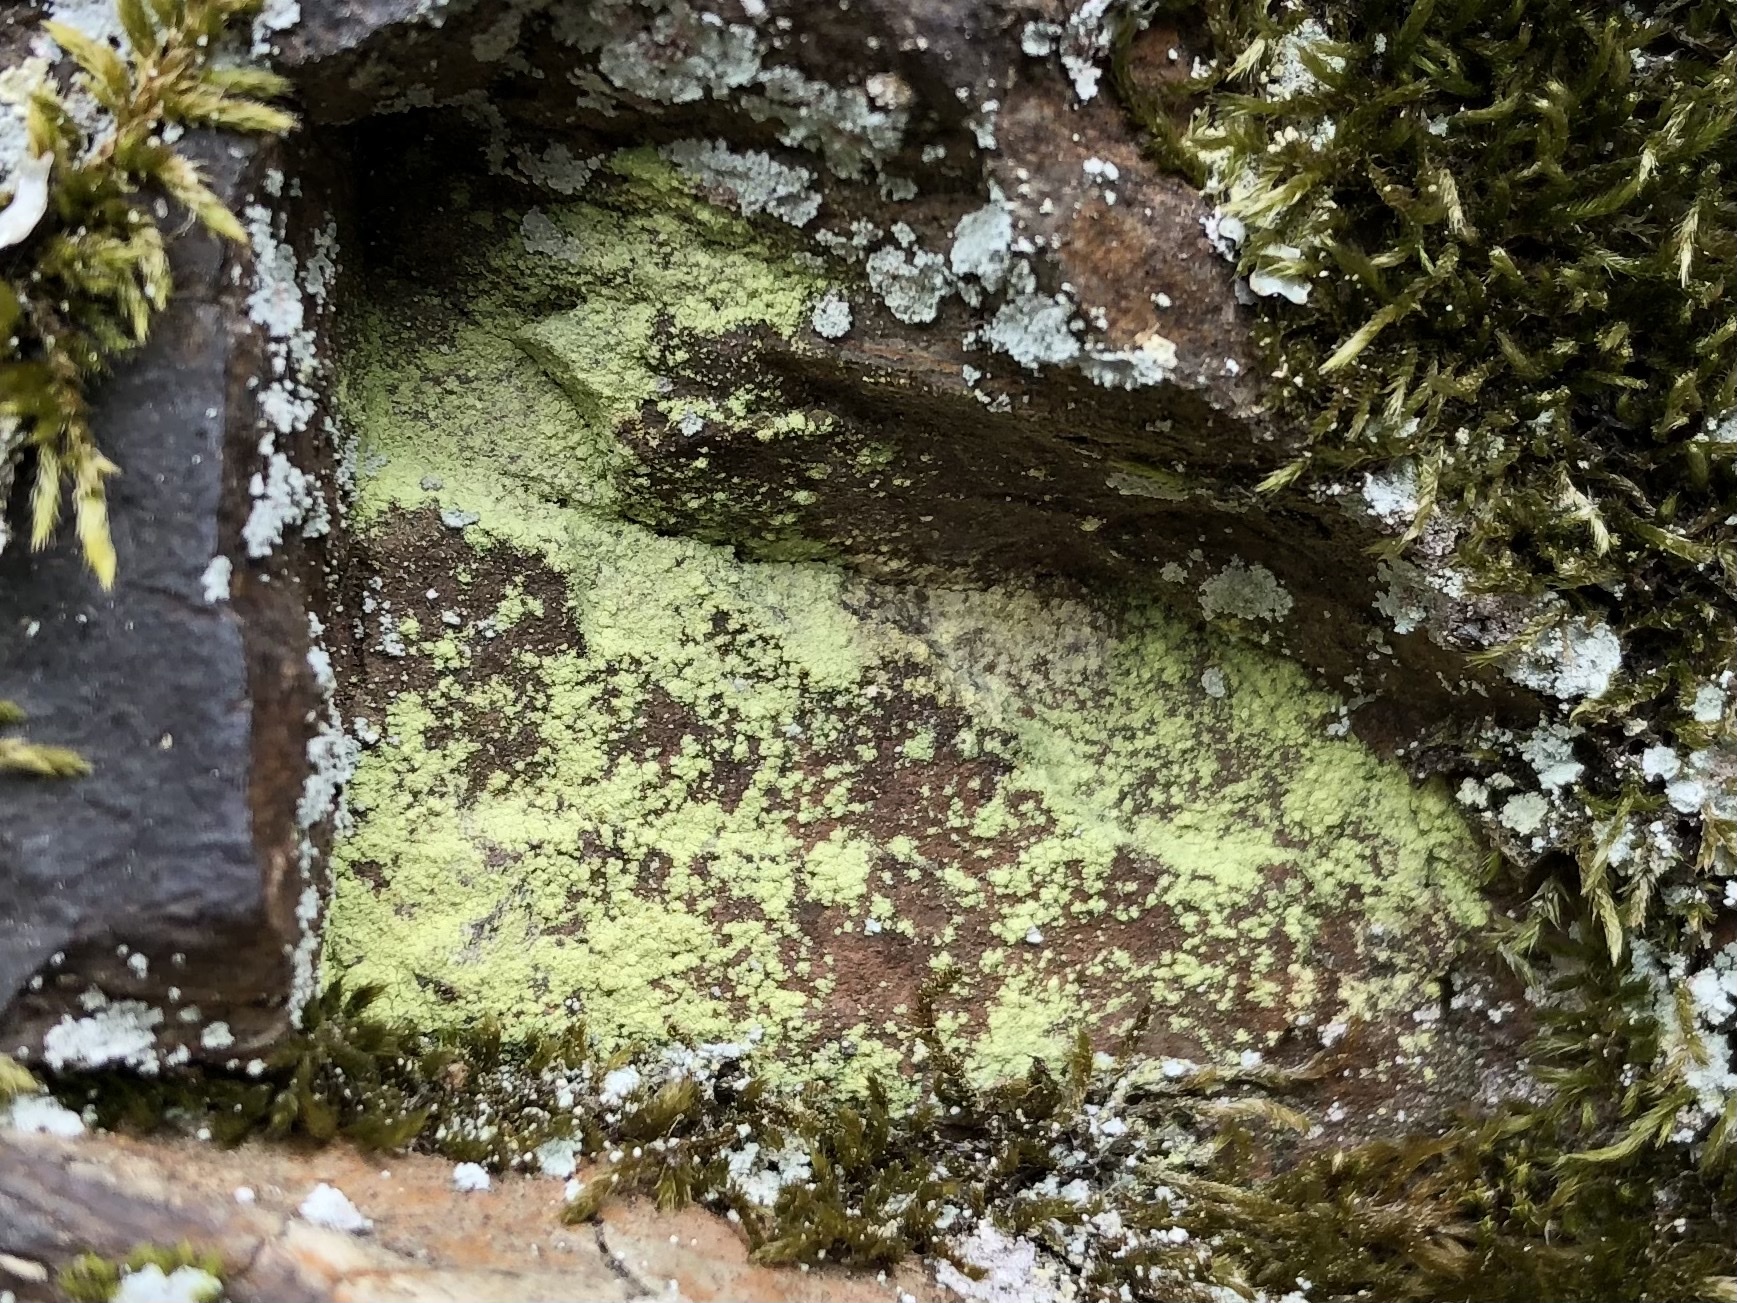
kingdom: Fungi
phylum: Ascomycota
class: Lecanoromycetes
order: Lecanorales
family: Psilolechiaceae
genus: Psilolechia
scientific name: Psilolechia lucida
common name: Sulphur dust lichen
